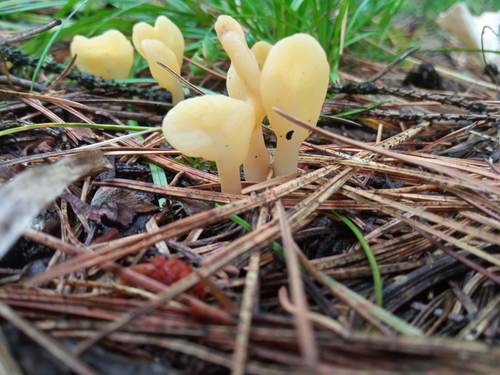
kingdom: Fungi
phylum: Ascomycota
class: Leotiomycetes
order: Rhytismatales
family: Cudoniaceae
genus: Spathularia
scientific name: Spathularia flavida
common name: Yellow fan
